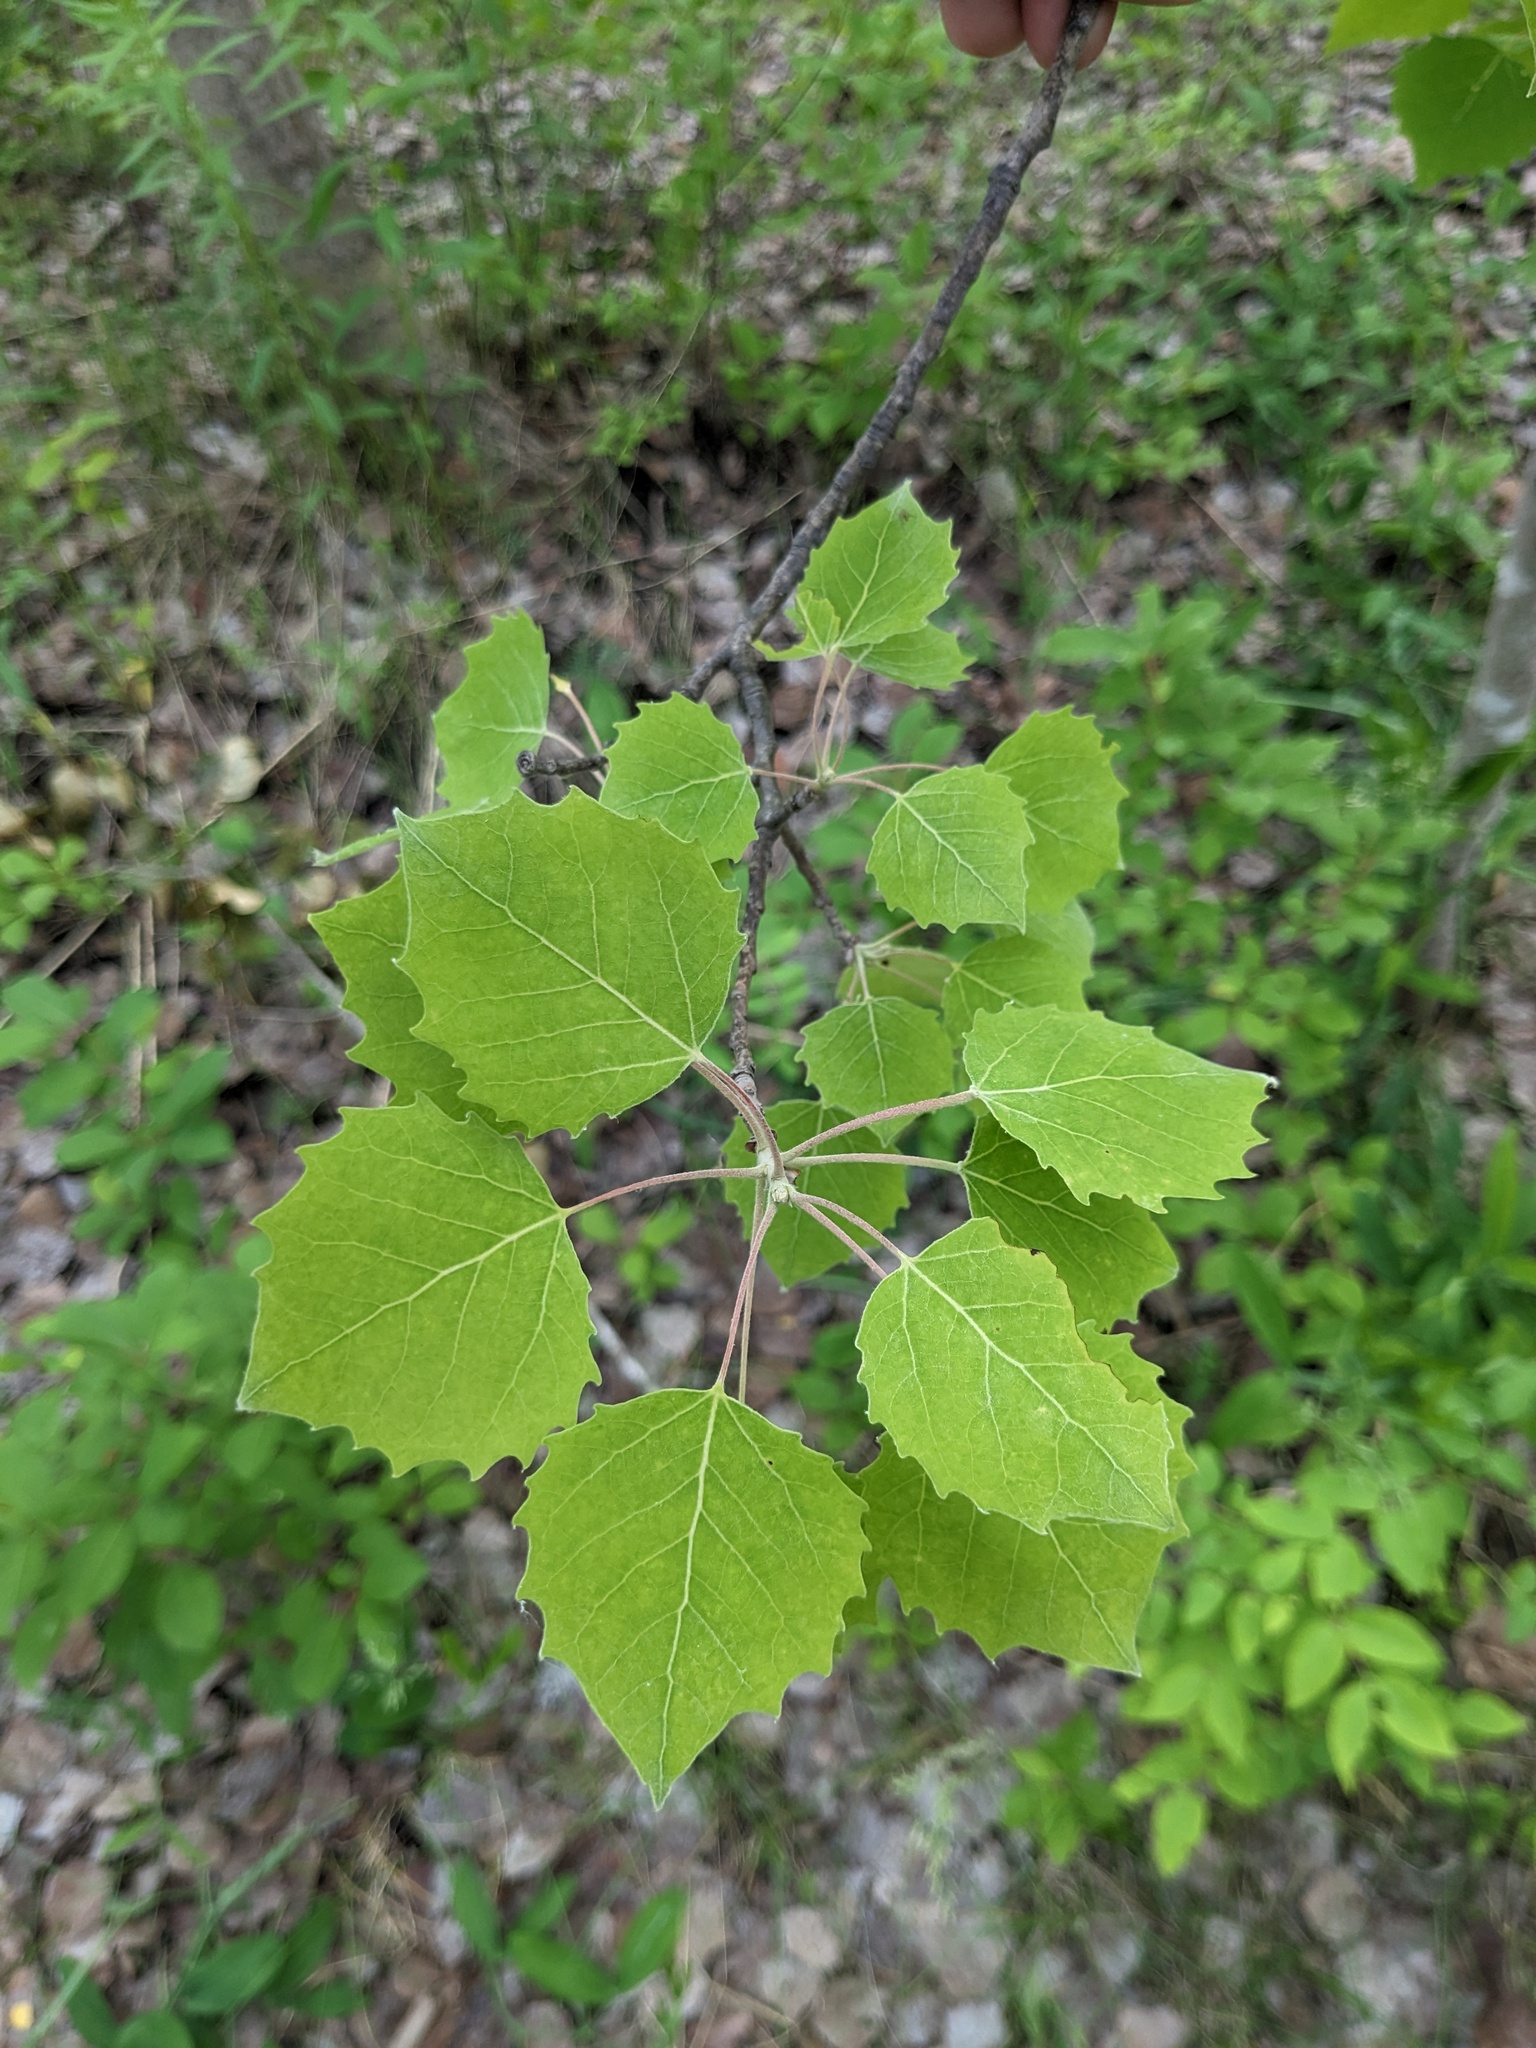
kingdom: Plantae
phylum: Tracheophyta
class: Magnoliopsida
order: Malpighiales
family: Salicaceae
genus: Populus
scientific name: Populus grandidentata
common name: Bigtooth aspen
